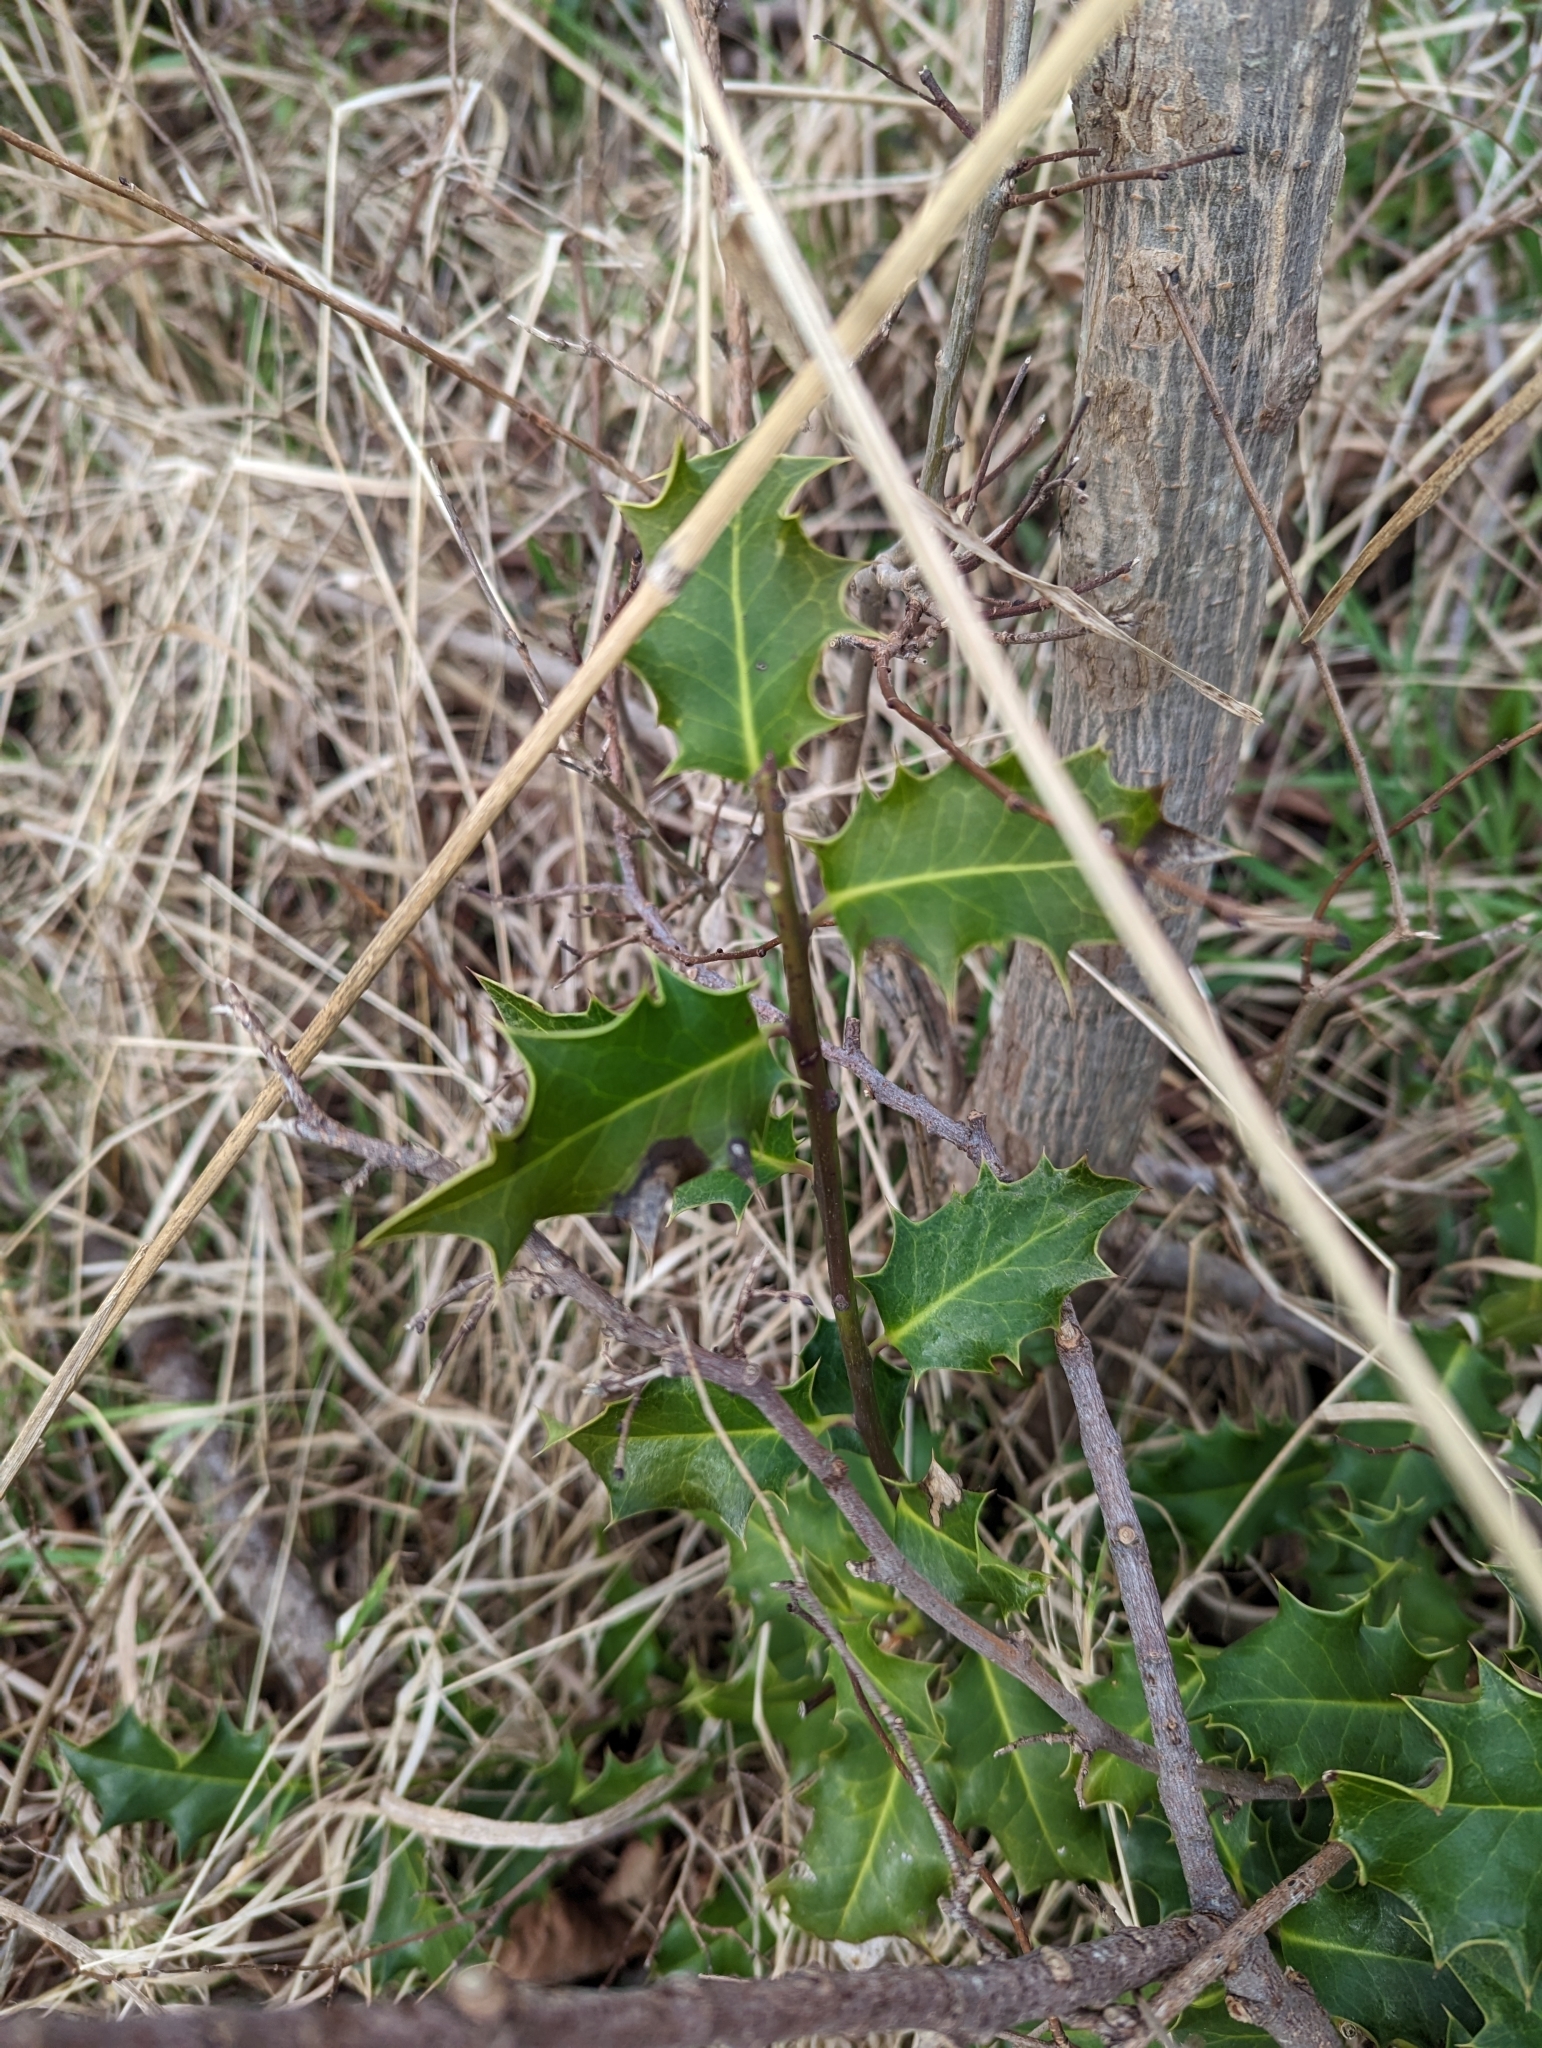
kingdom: Plantae
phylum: Tracheophyta
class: Magnoliopsida
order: Aquifoliales
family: Aquifoliaceae
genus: Ilex
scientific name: Ilex aquifolium
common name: English holly
